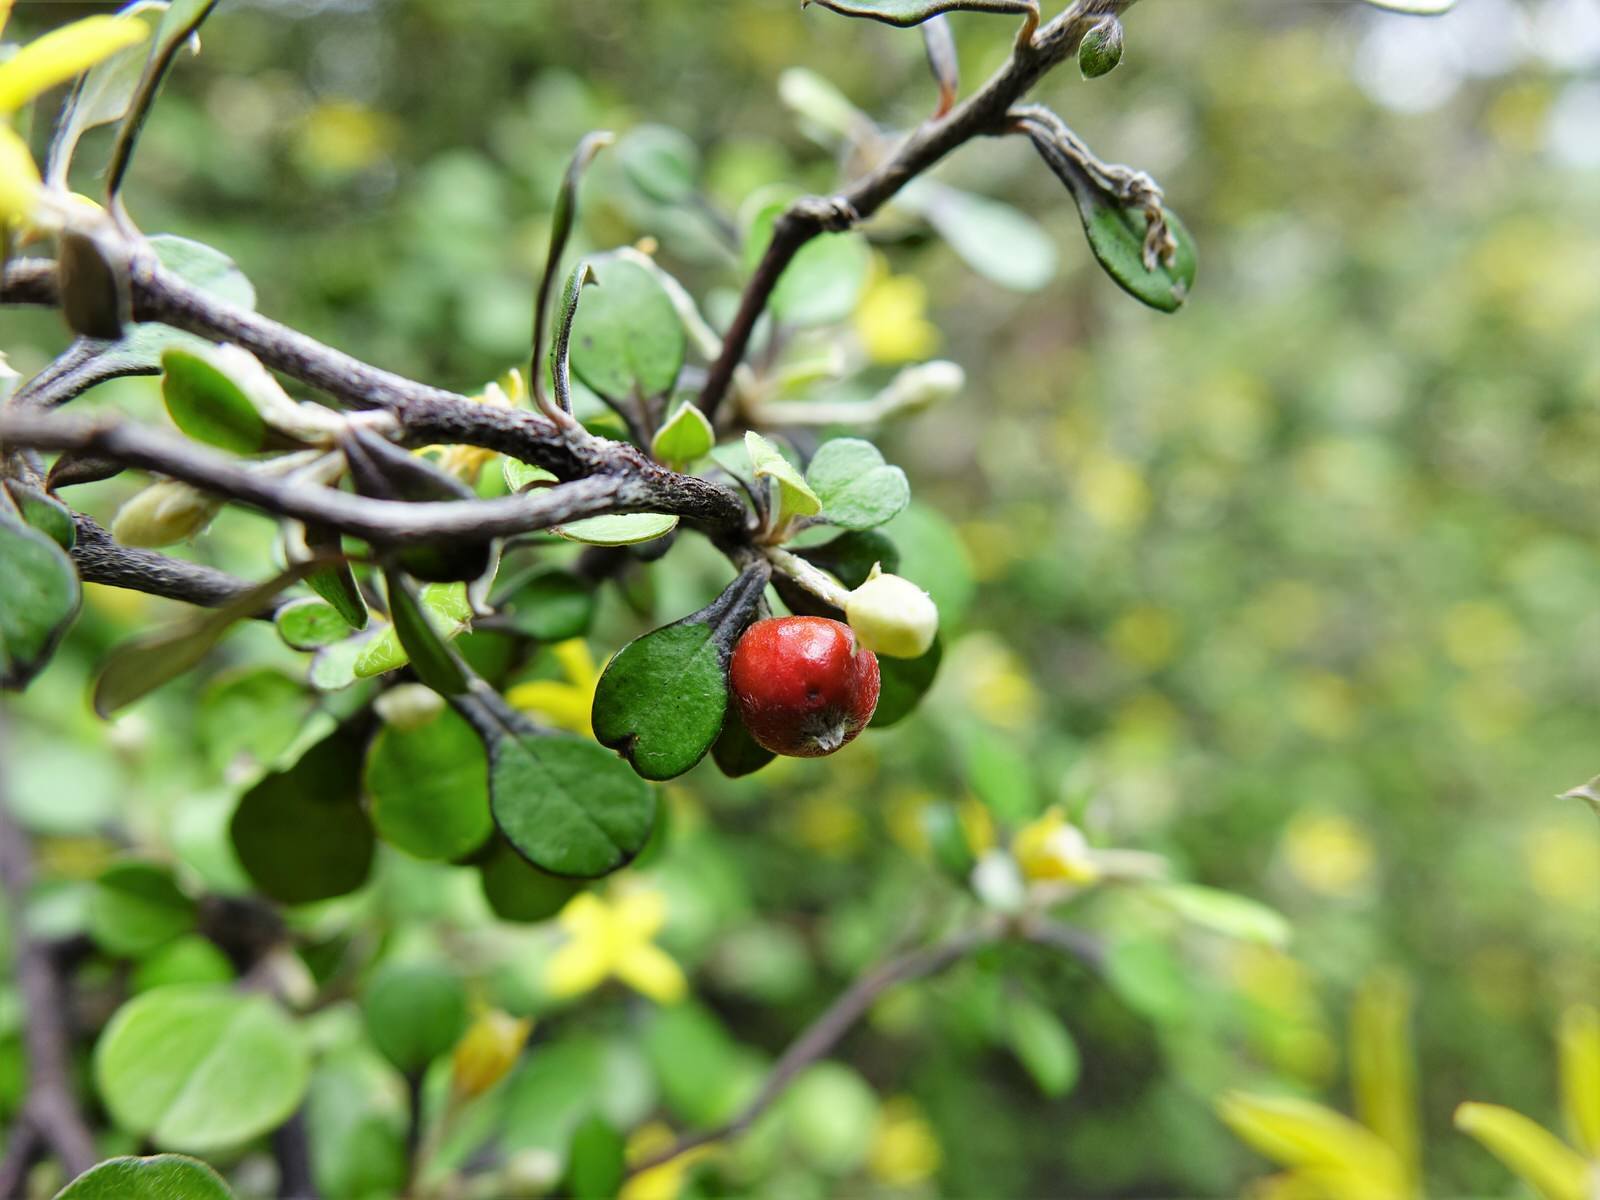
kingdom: Plantae
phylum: Tracheophyta
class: Magnoliopsida
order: Asterales
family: Argophyllaceae
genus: Corokia
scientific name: Corokia cotoneaster
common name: Wire nettingbush
